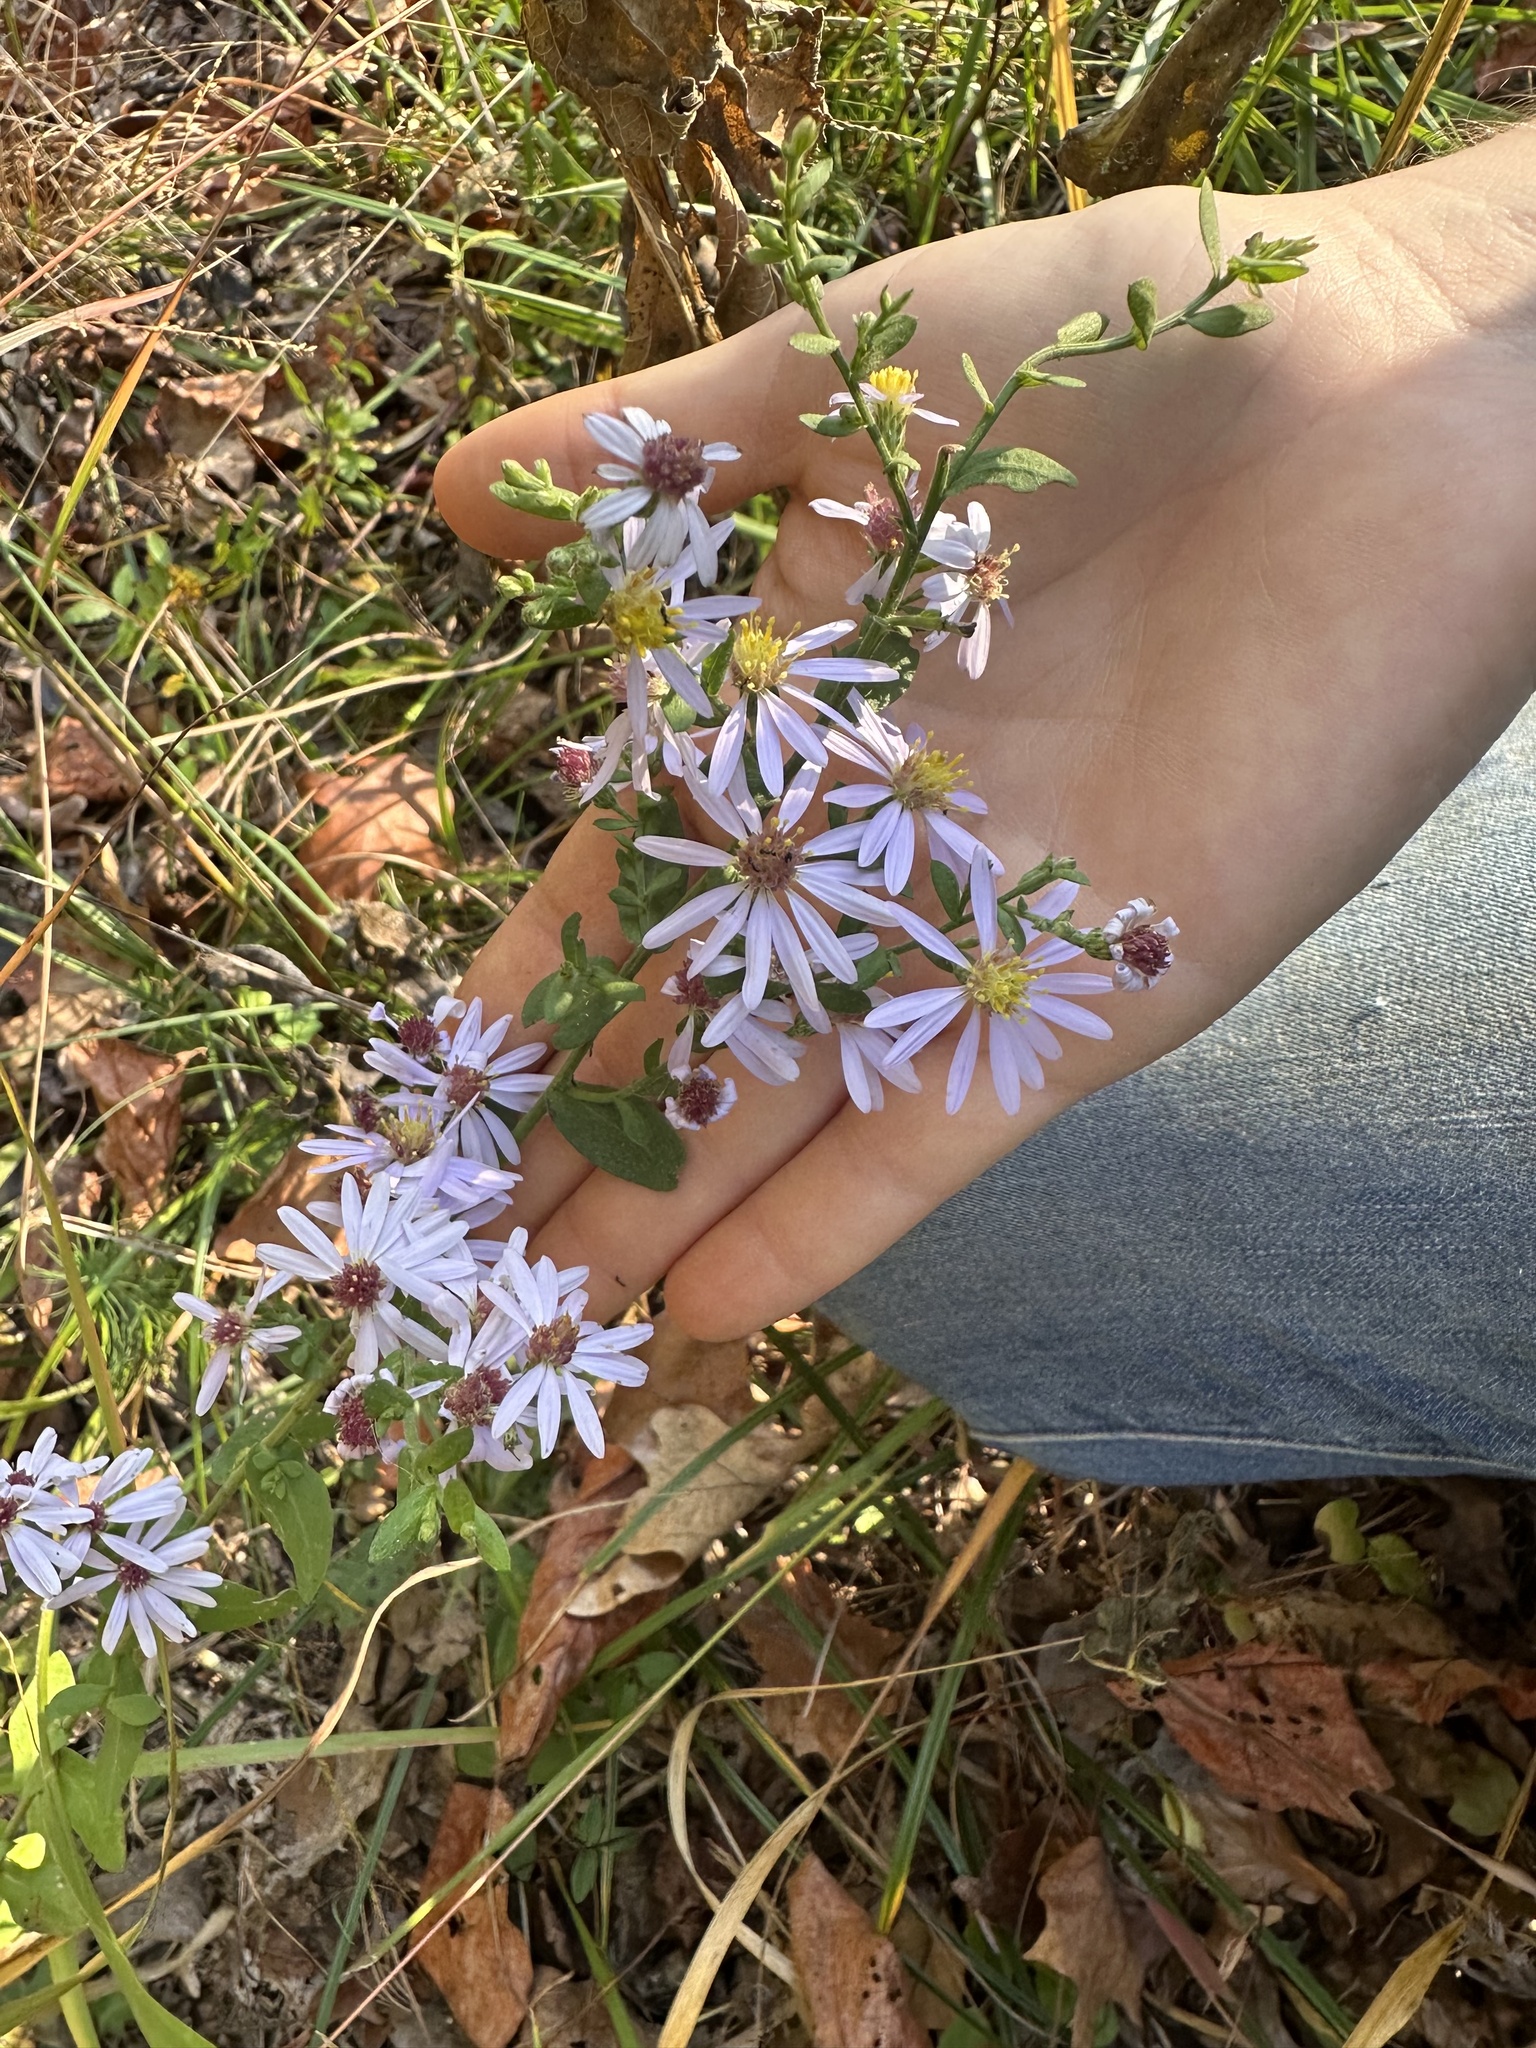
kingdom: Plantae
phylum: Tracheophyta
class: Magnoliopsida
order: Asterales
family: Asteraceae
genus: Symphyotrichum
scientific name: Symphyotrichum undulatum
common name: Clasping heart-leaf aster
